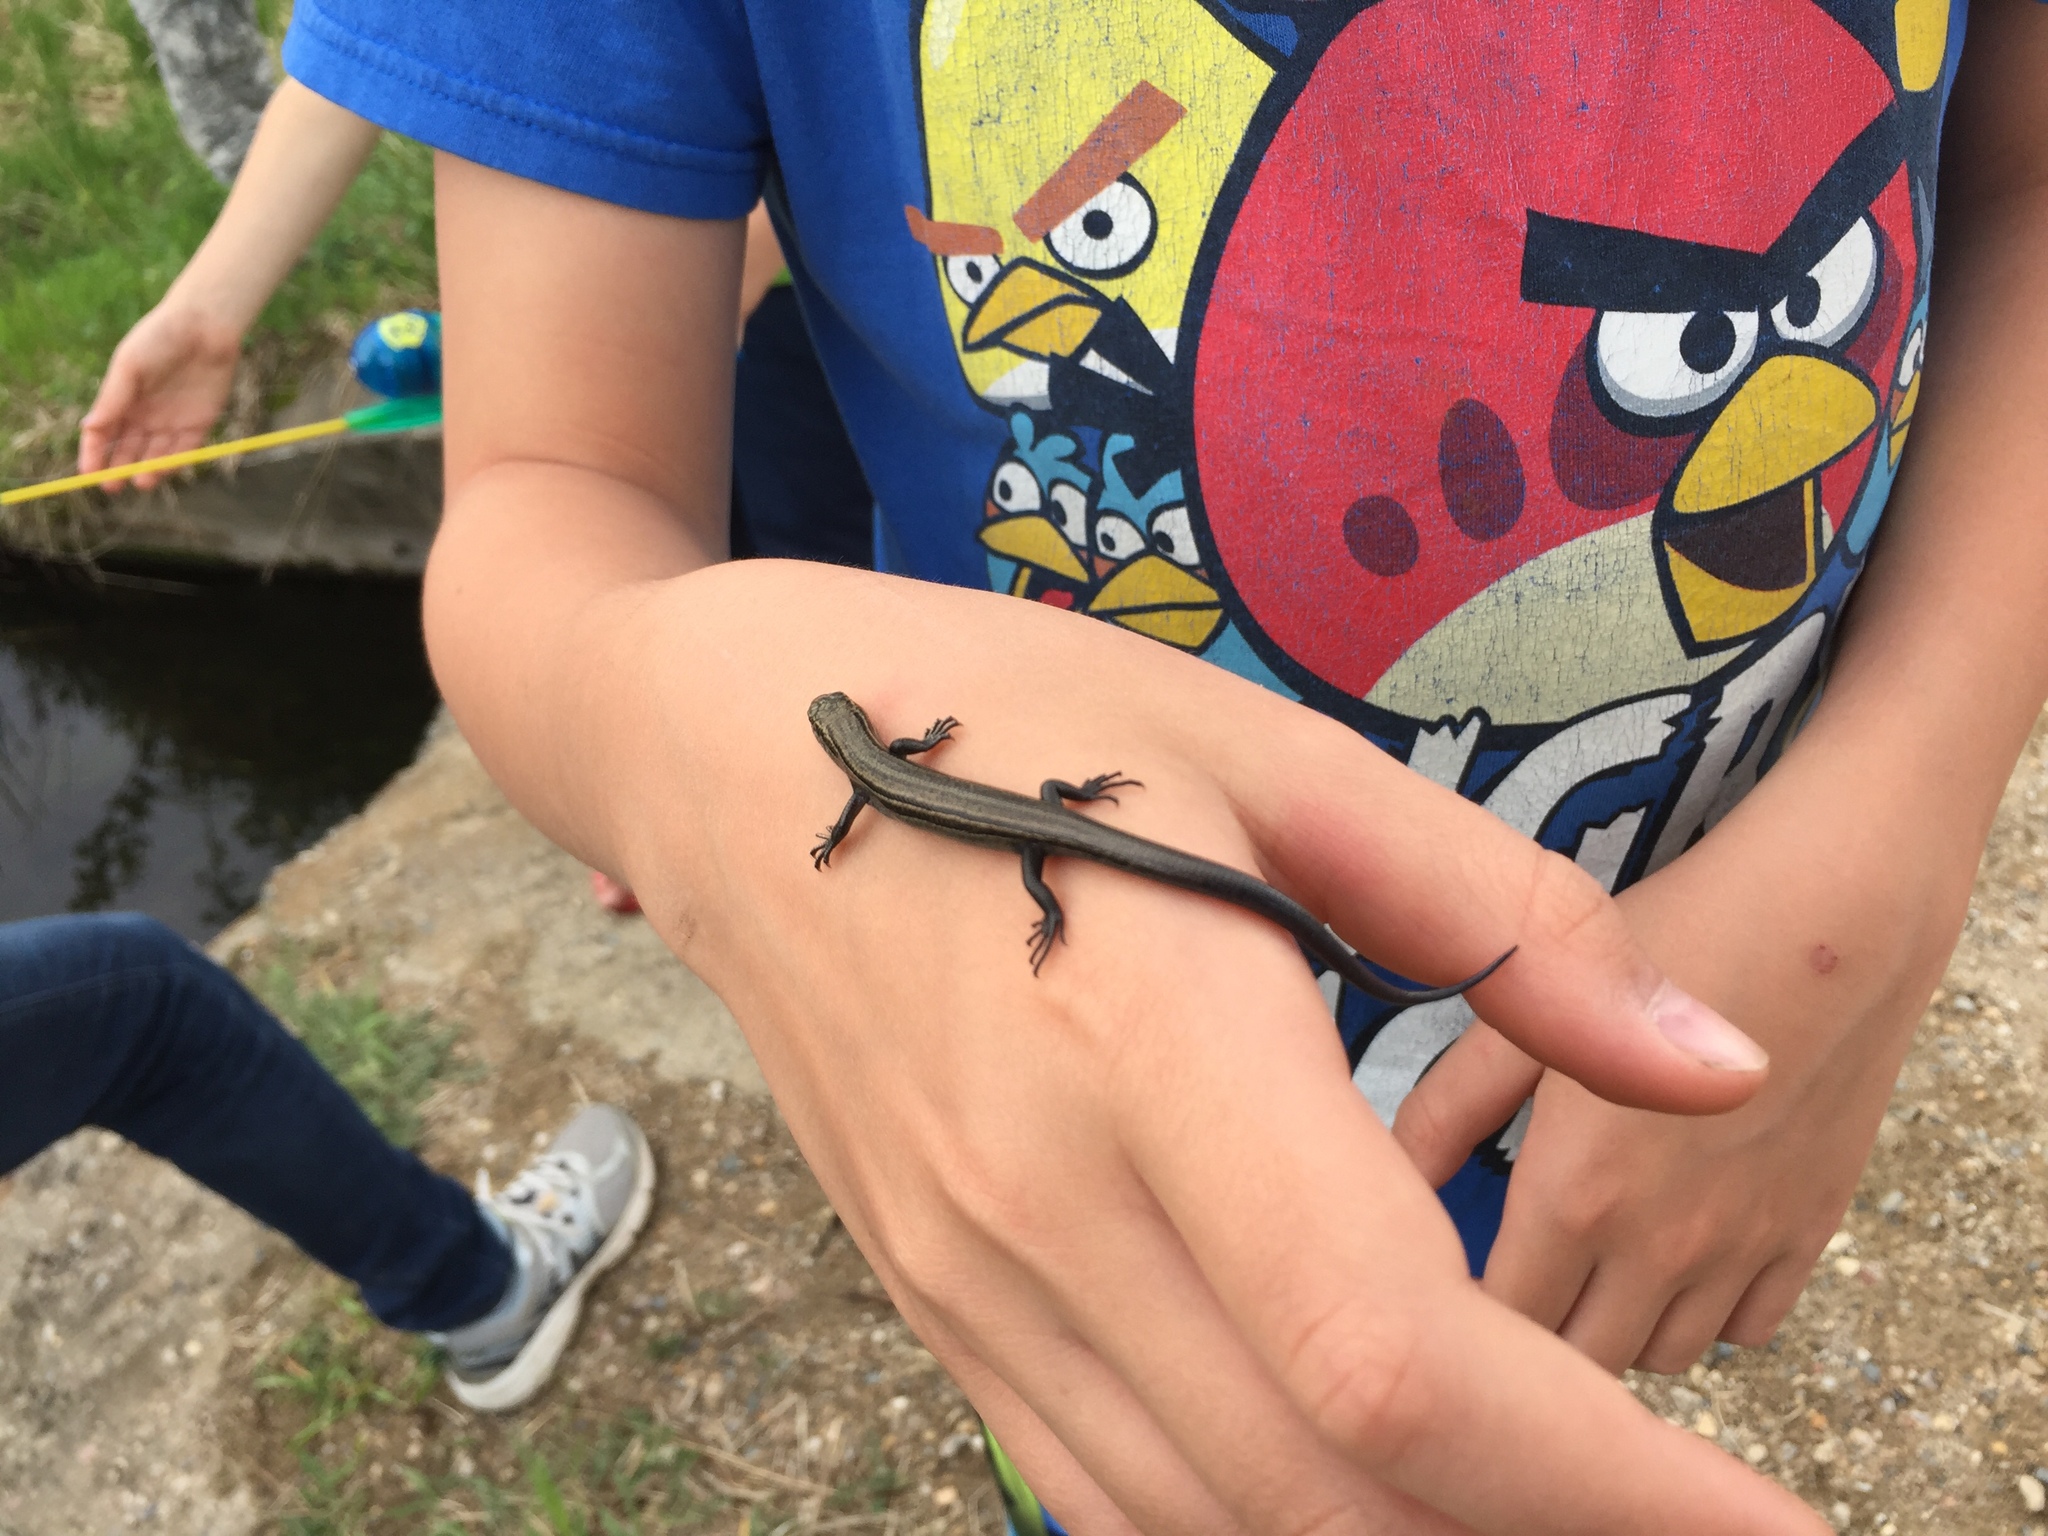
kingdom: Animalia
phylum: Chordata
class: Squamata
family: Scincidae
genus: Plestiodon
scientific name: Plestiodon septentrionalis
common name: Northern prairie skink
